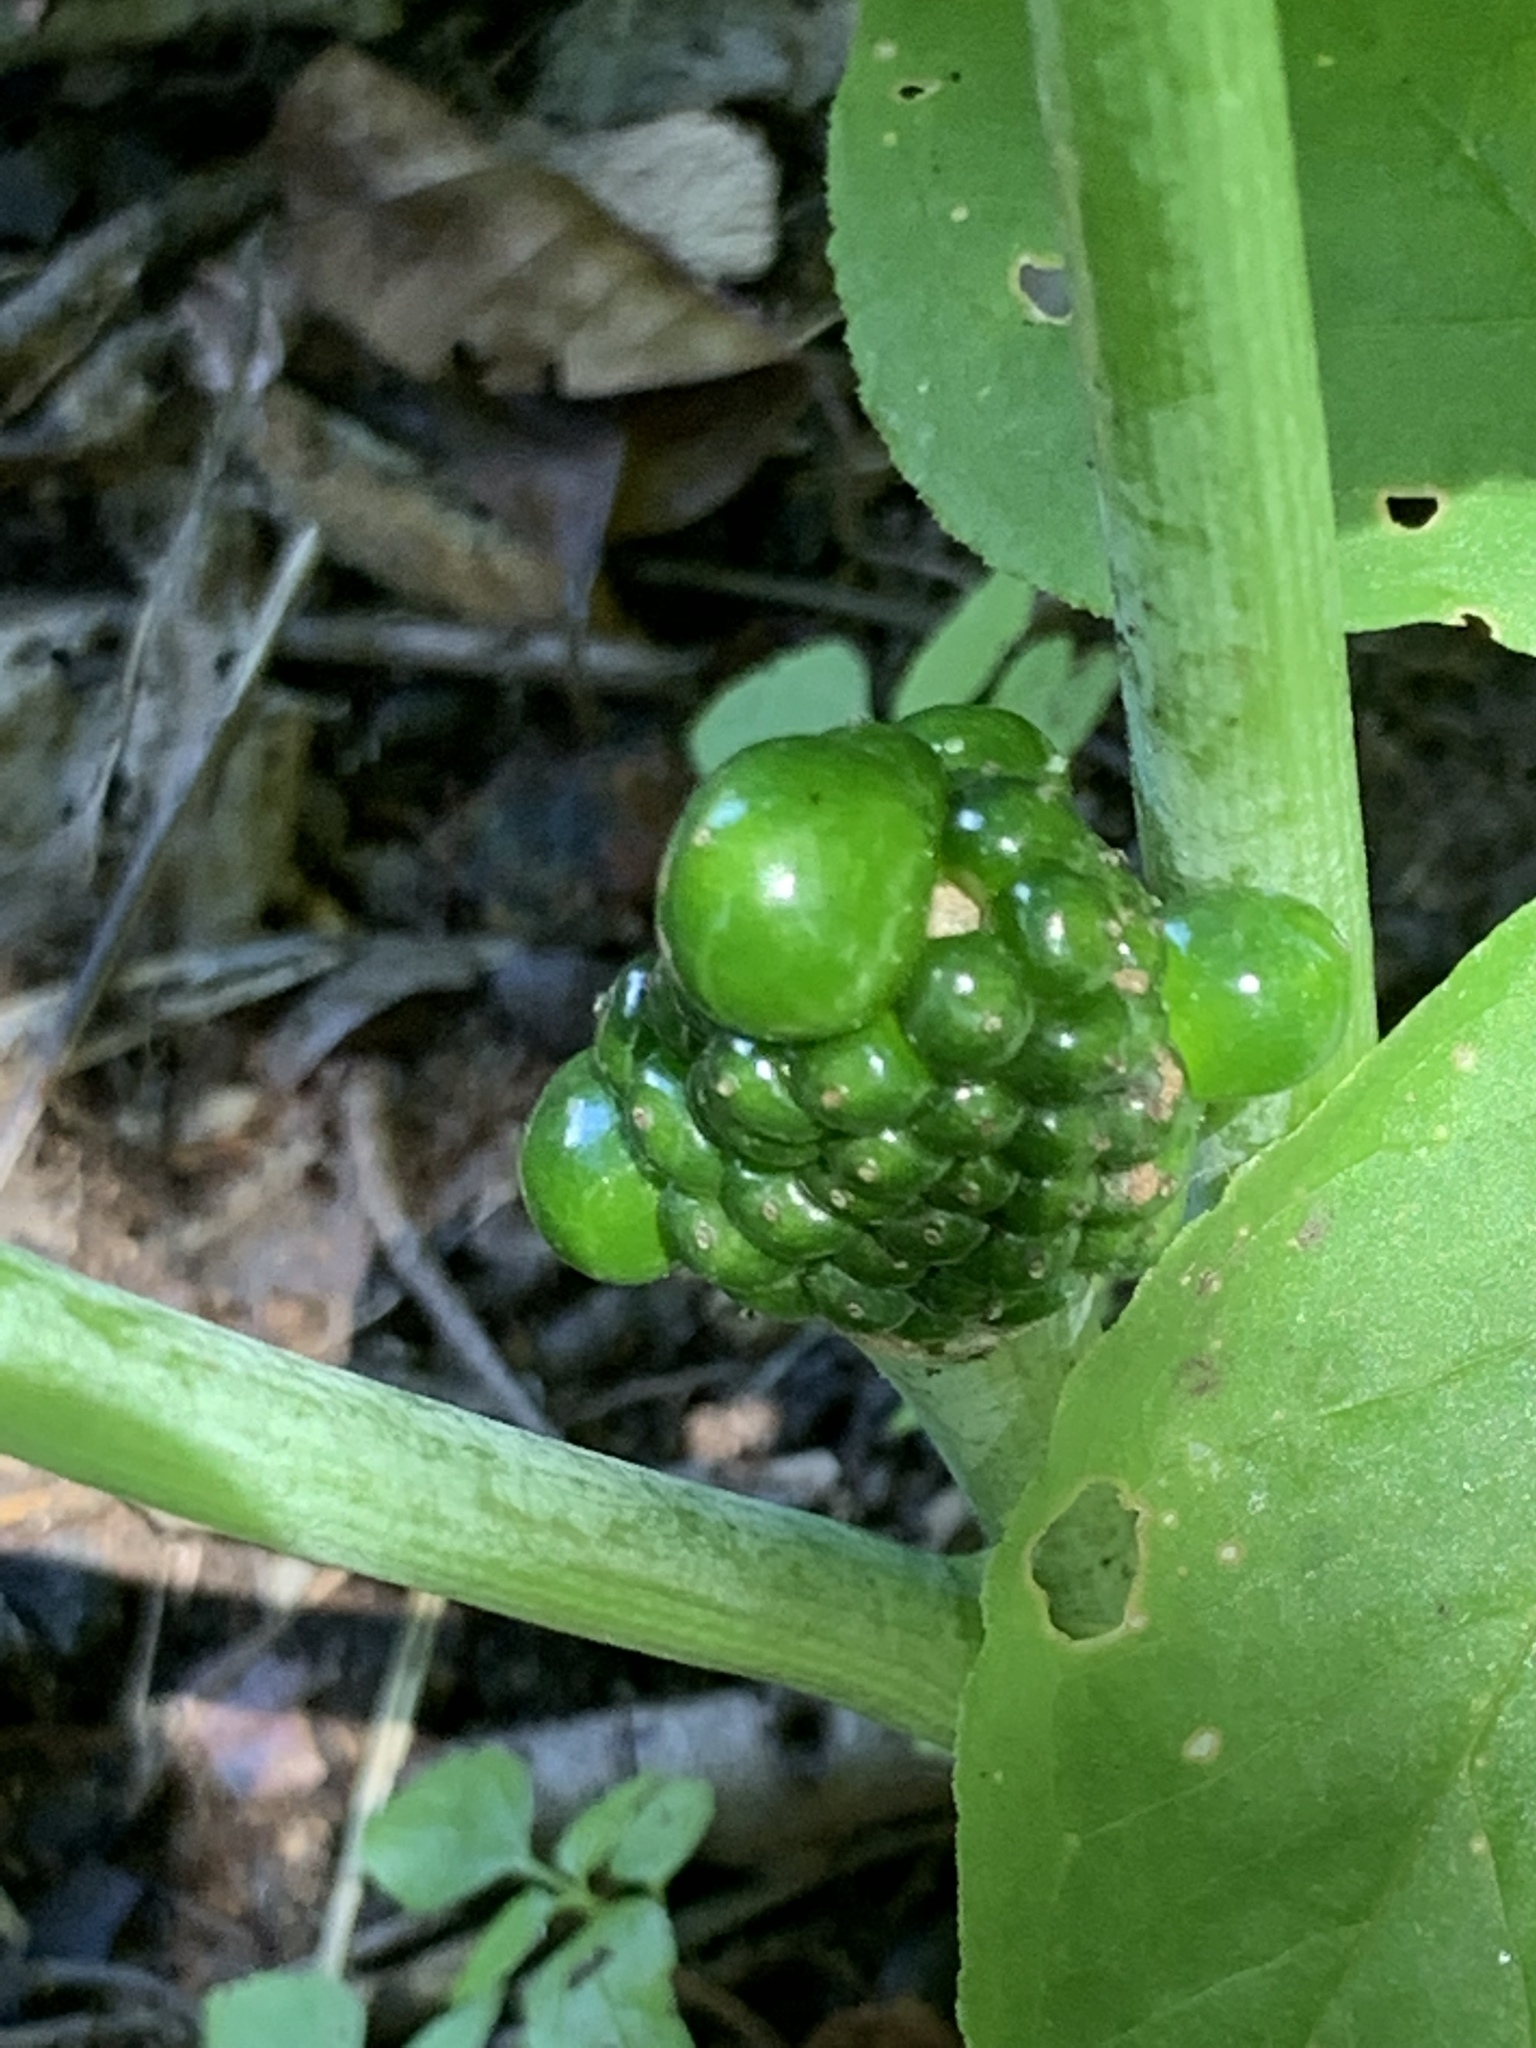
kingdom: Plantae
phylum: Tracheophyta
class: Liliopsida
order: Alismatales
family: Araceae
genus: Arisaema
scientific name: Arisaema triphyllum
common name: Jack-in-the-pulpit
